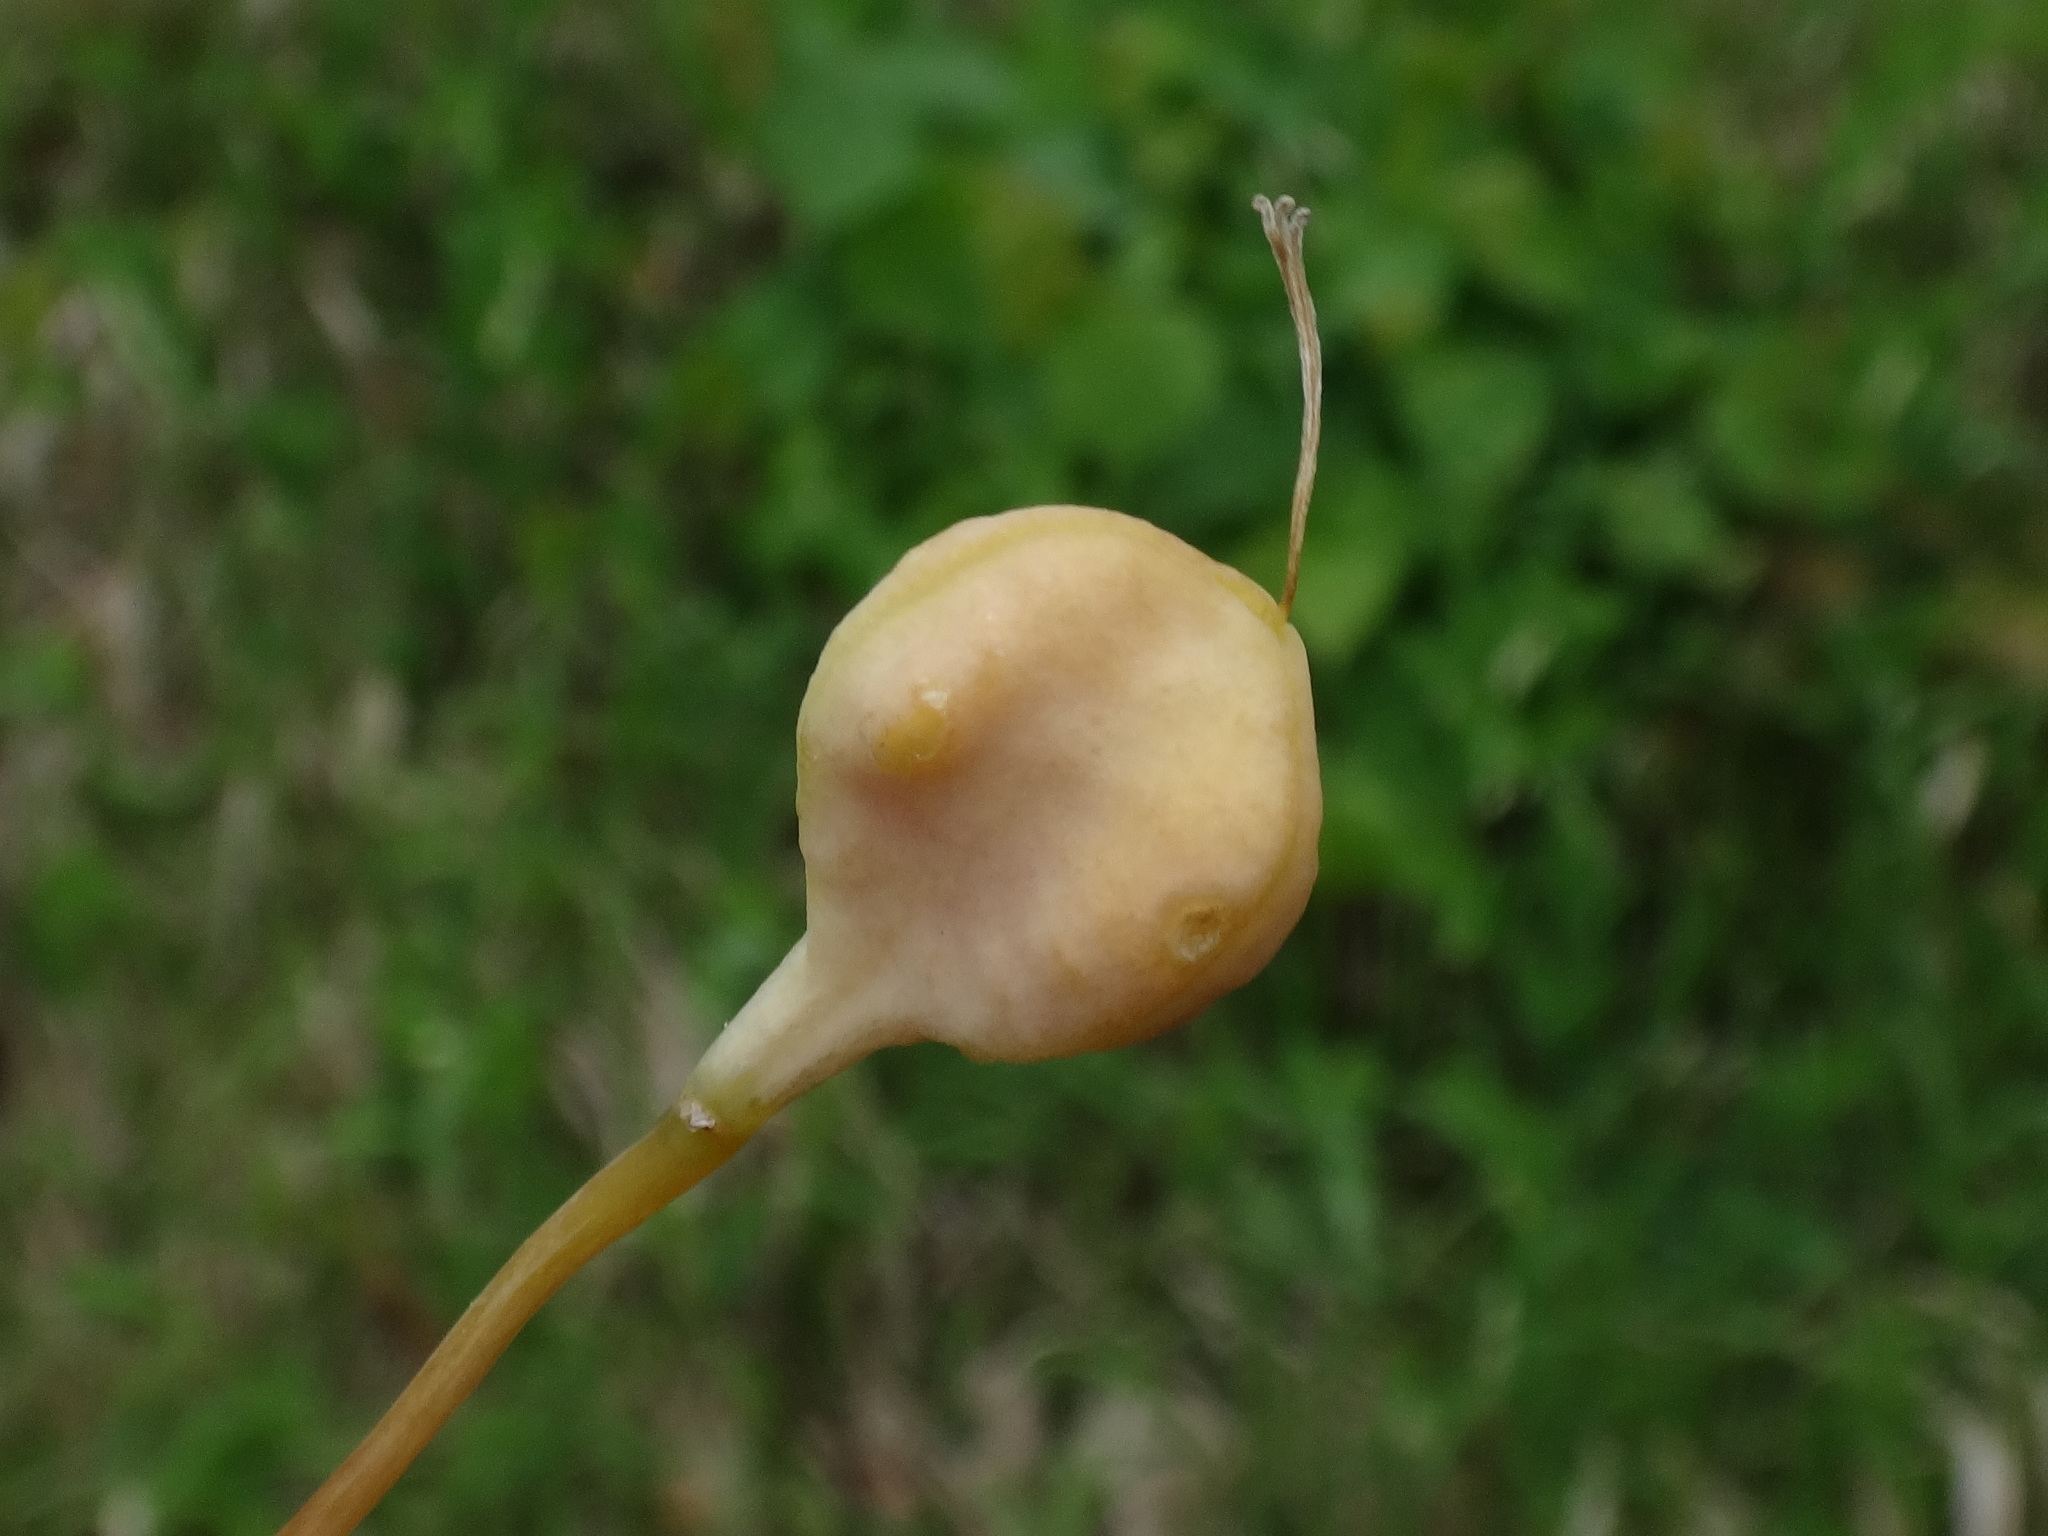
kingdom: Plantae
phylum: Tracheophyta
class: Liliopsida
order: Liliales
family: Liliaceae
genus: Erythronium
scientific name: Erythronium dens-canis
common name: Dog's-tooth-violet
